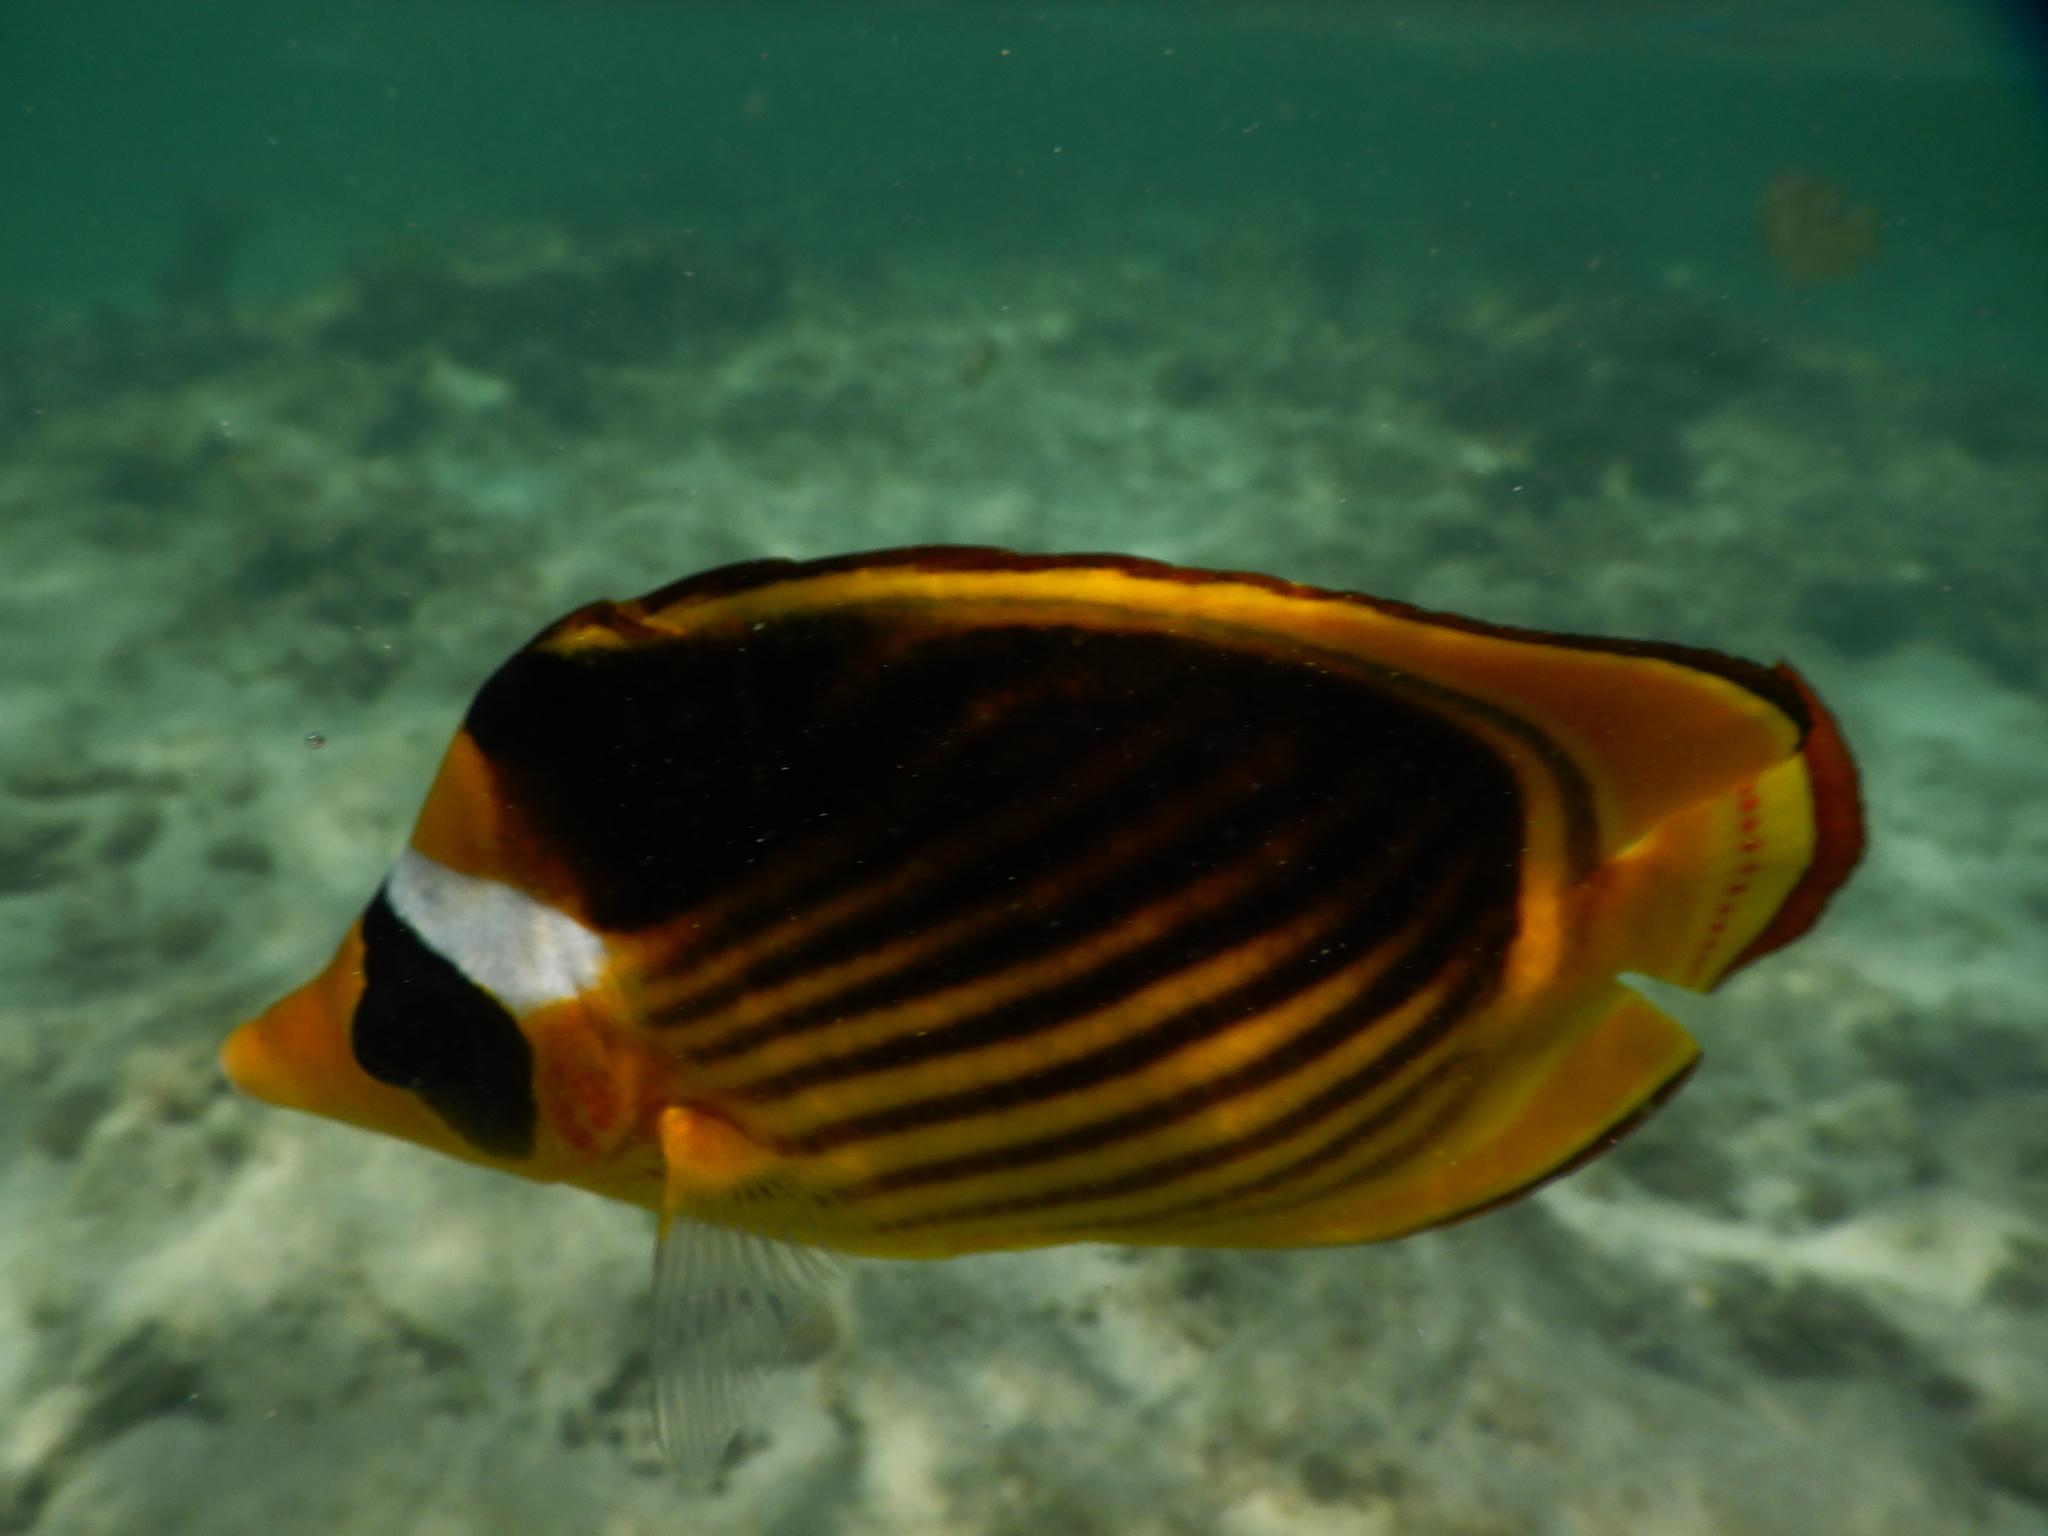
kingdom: Animalia
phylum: Chordata
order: Perciformes
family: Chaetodontidae
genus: Chaetodon
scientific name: Chaetodon fasciatus
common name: Diagonal butterflyfish
